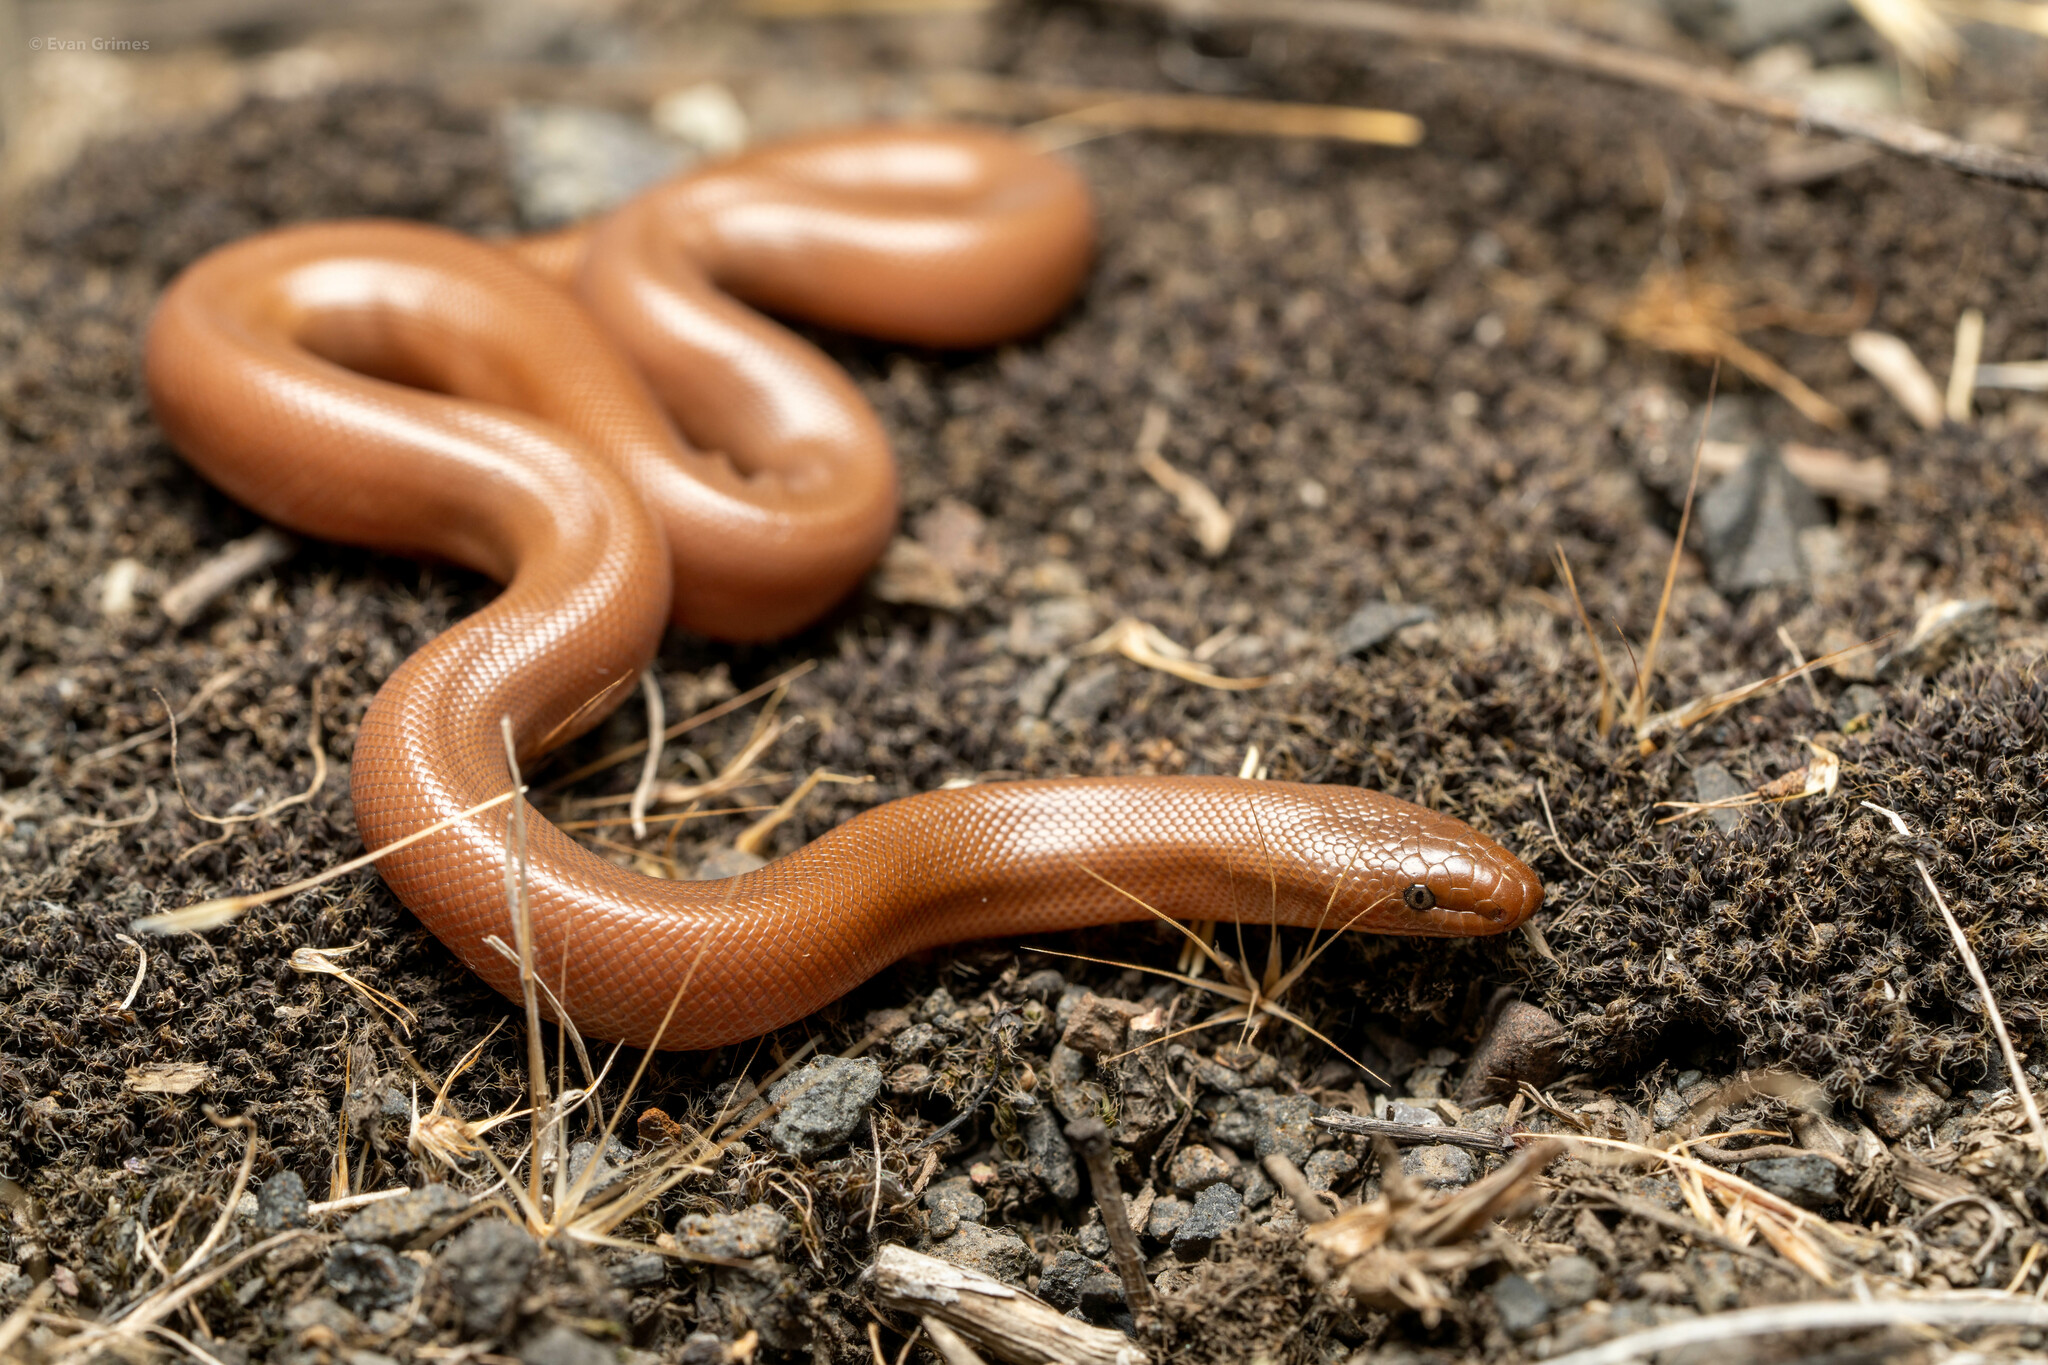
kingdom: Animalia
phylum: Chordata
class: Squamata
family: Boidae
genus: Charina
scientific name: Charina bottae
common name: Northern rubber boa
